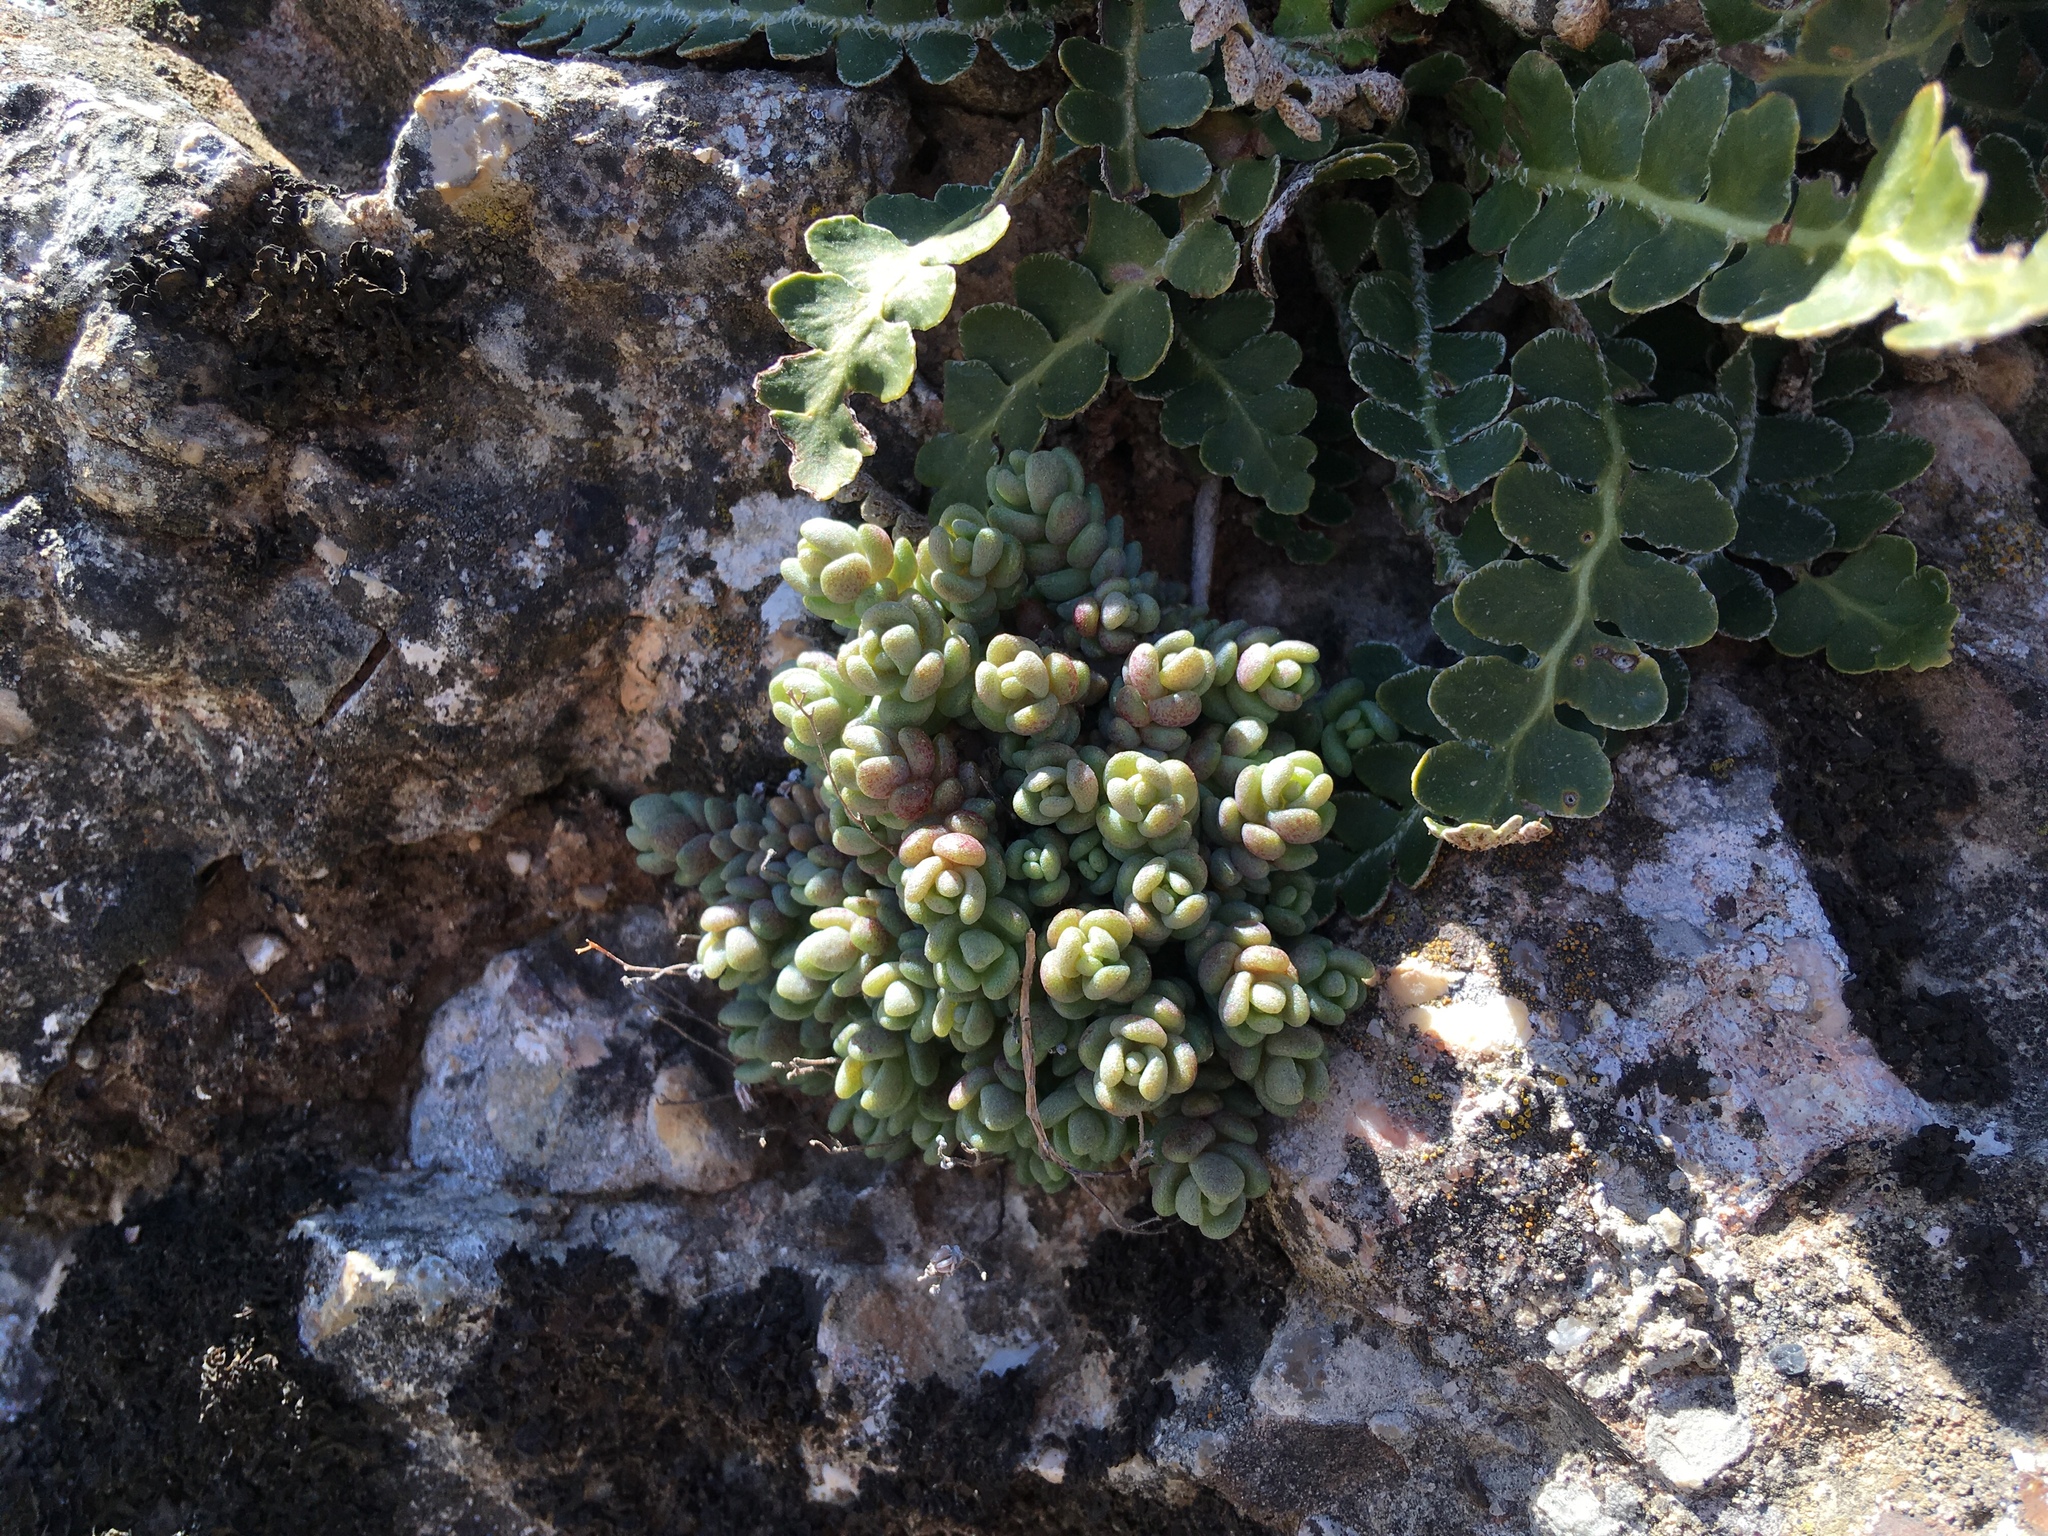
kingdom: Plantae
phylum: Tracheophyta
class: Magnoliopsida
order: Saxifragales
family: Crassulaceae
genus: Sedum
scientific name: Sedum dasyphyllum
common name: Thick-leaf stonecrop
